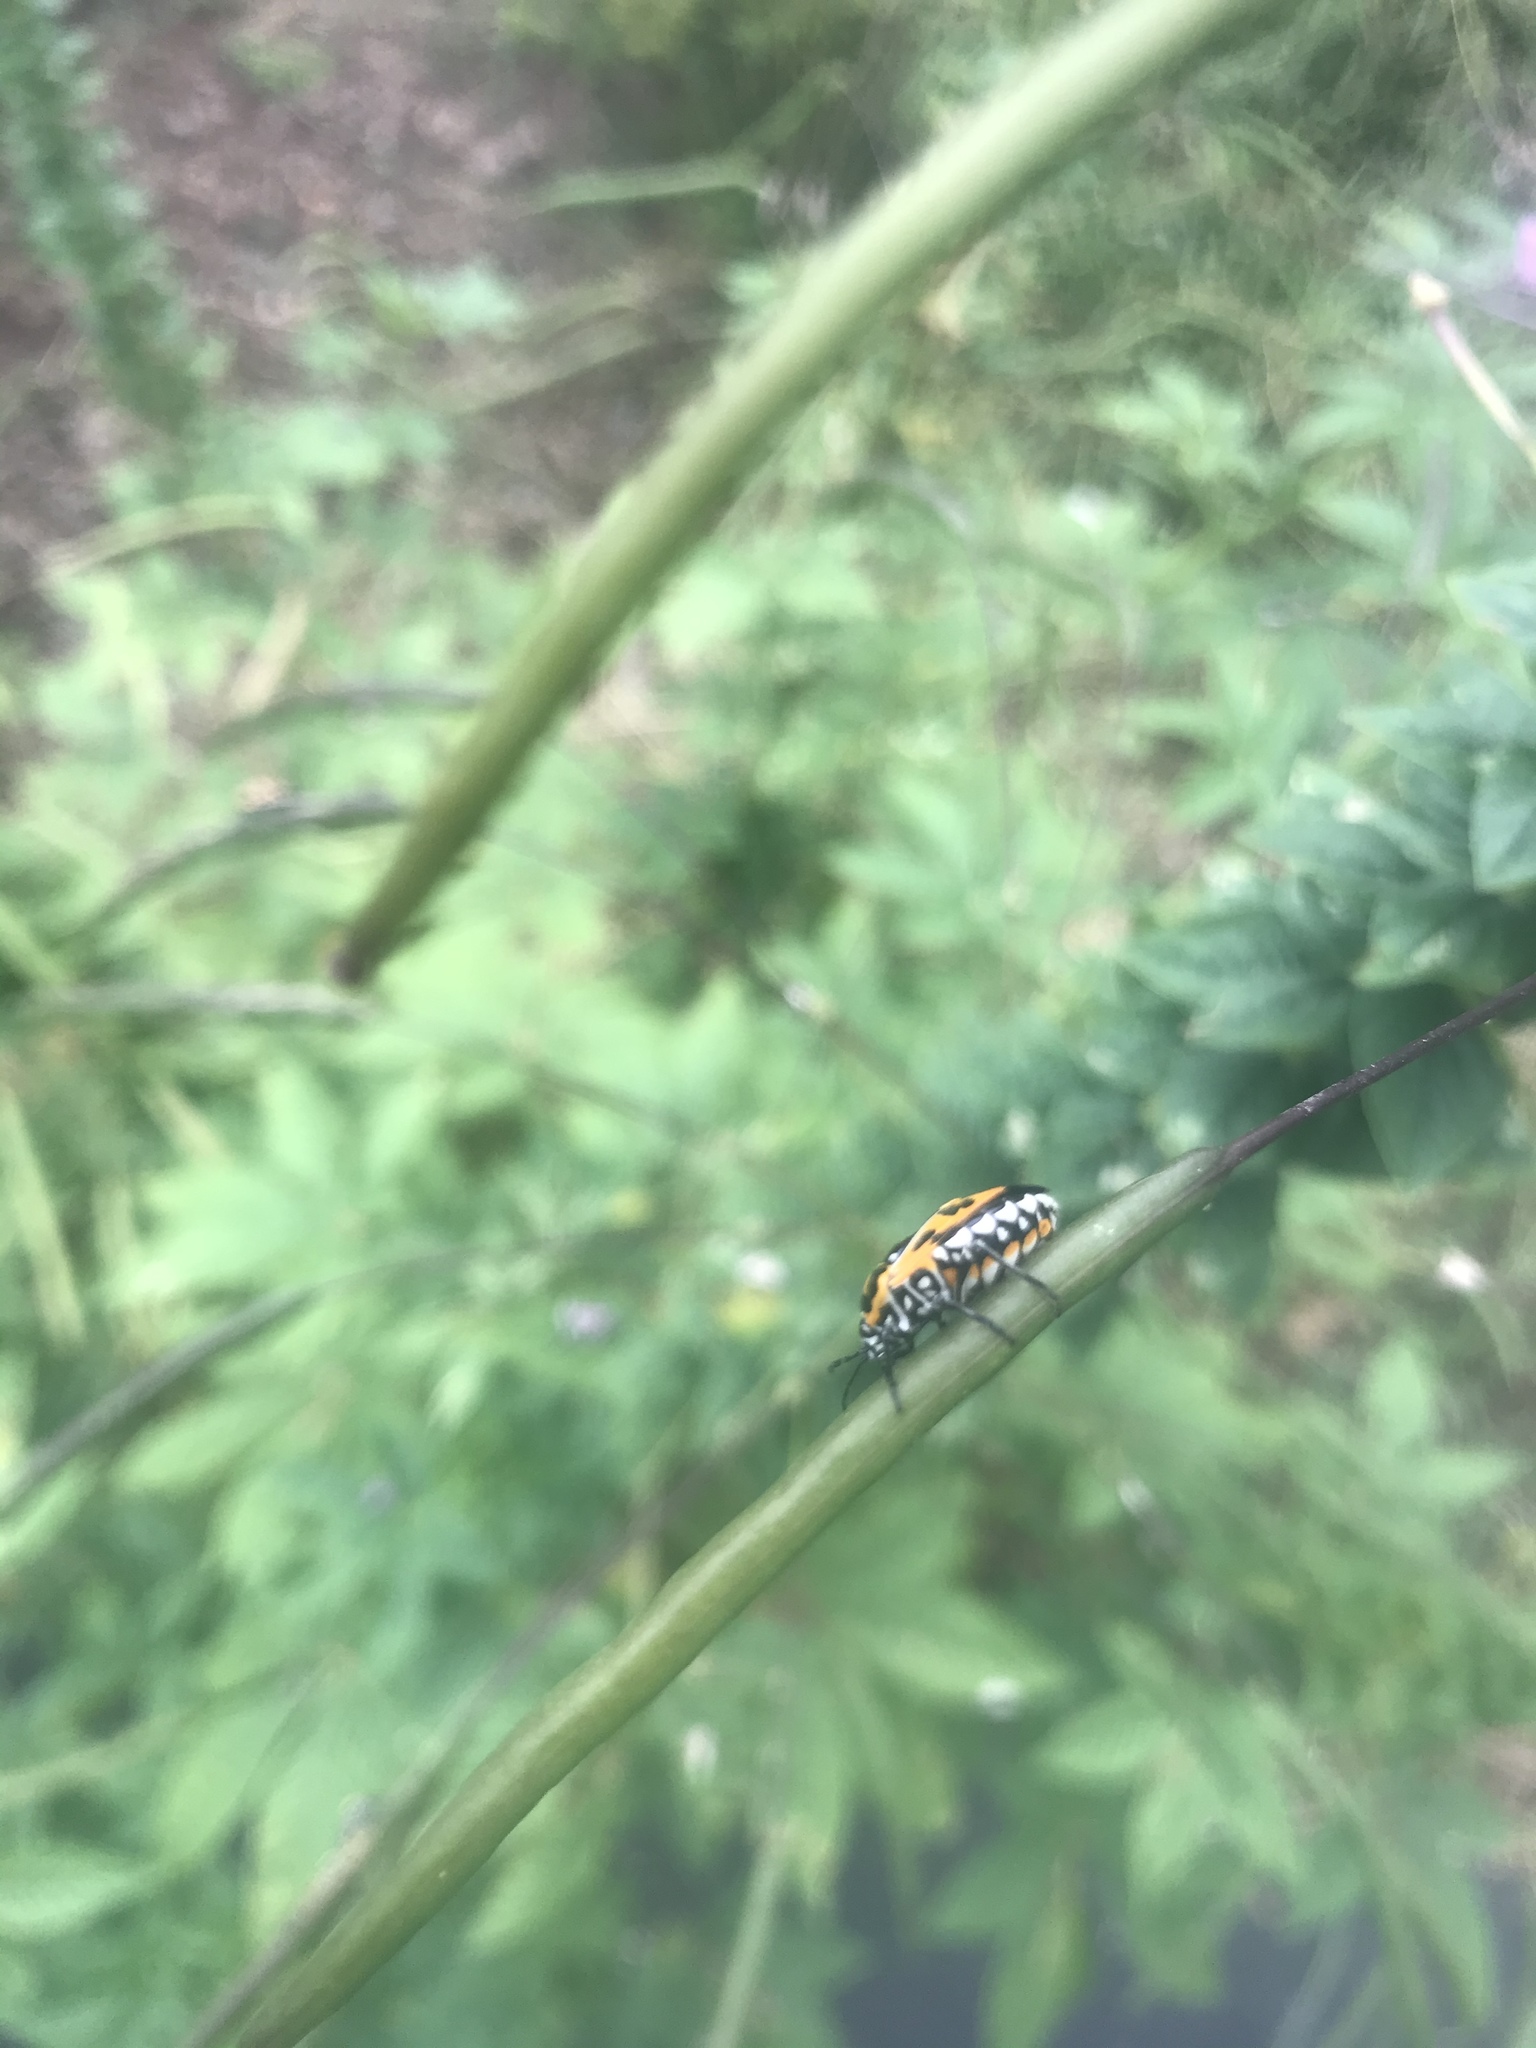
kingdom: Animalia
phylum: Arthropoda
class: Insecta
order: Hemiptera
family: Pentatomidae
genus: Murgantia
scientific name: Murgantia histrionica
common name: Harlequin bug
